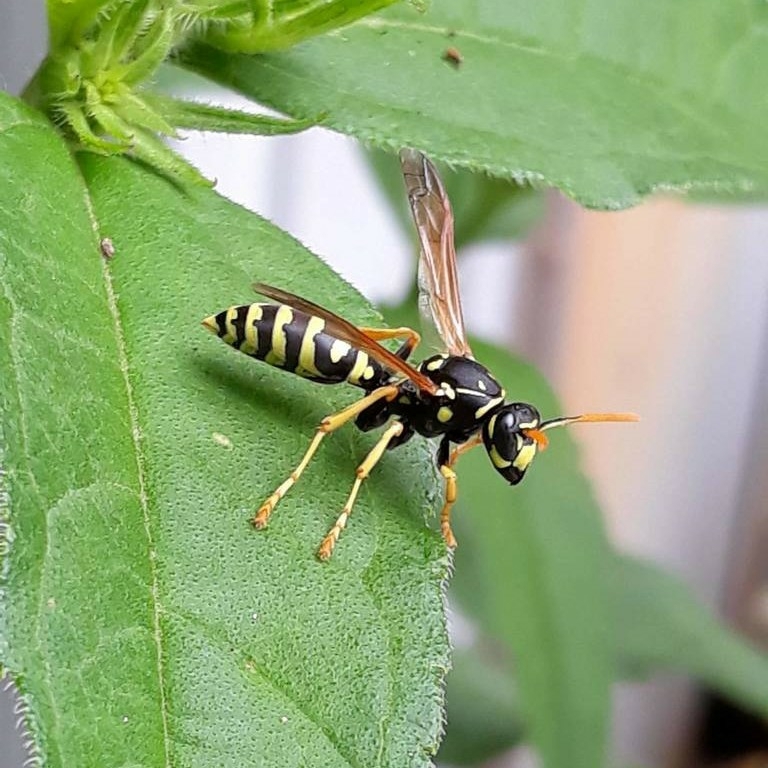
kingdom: Animalia
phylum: Arthropoda
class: Insecta
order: Hymenoptera
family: Eumenidae
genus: Polistes
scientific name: Polistes dominula
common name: Paper wasp
